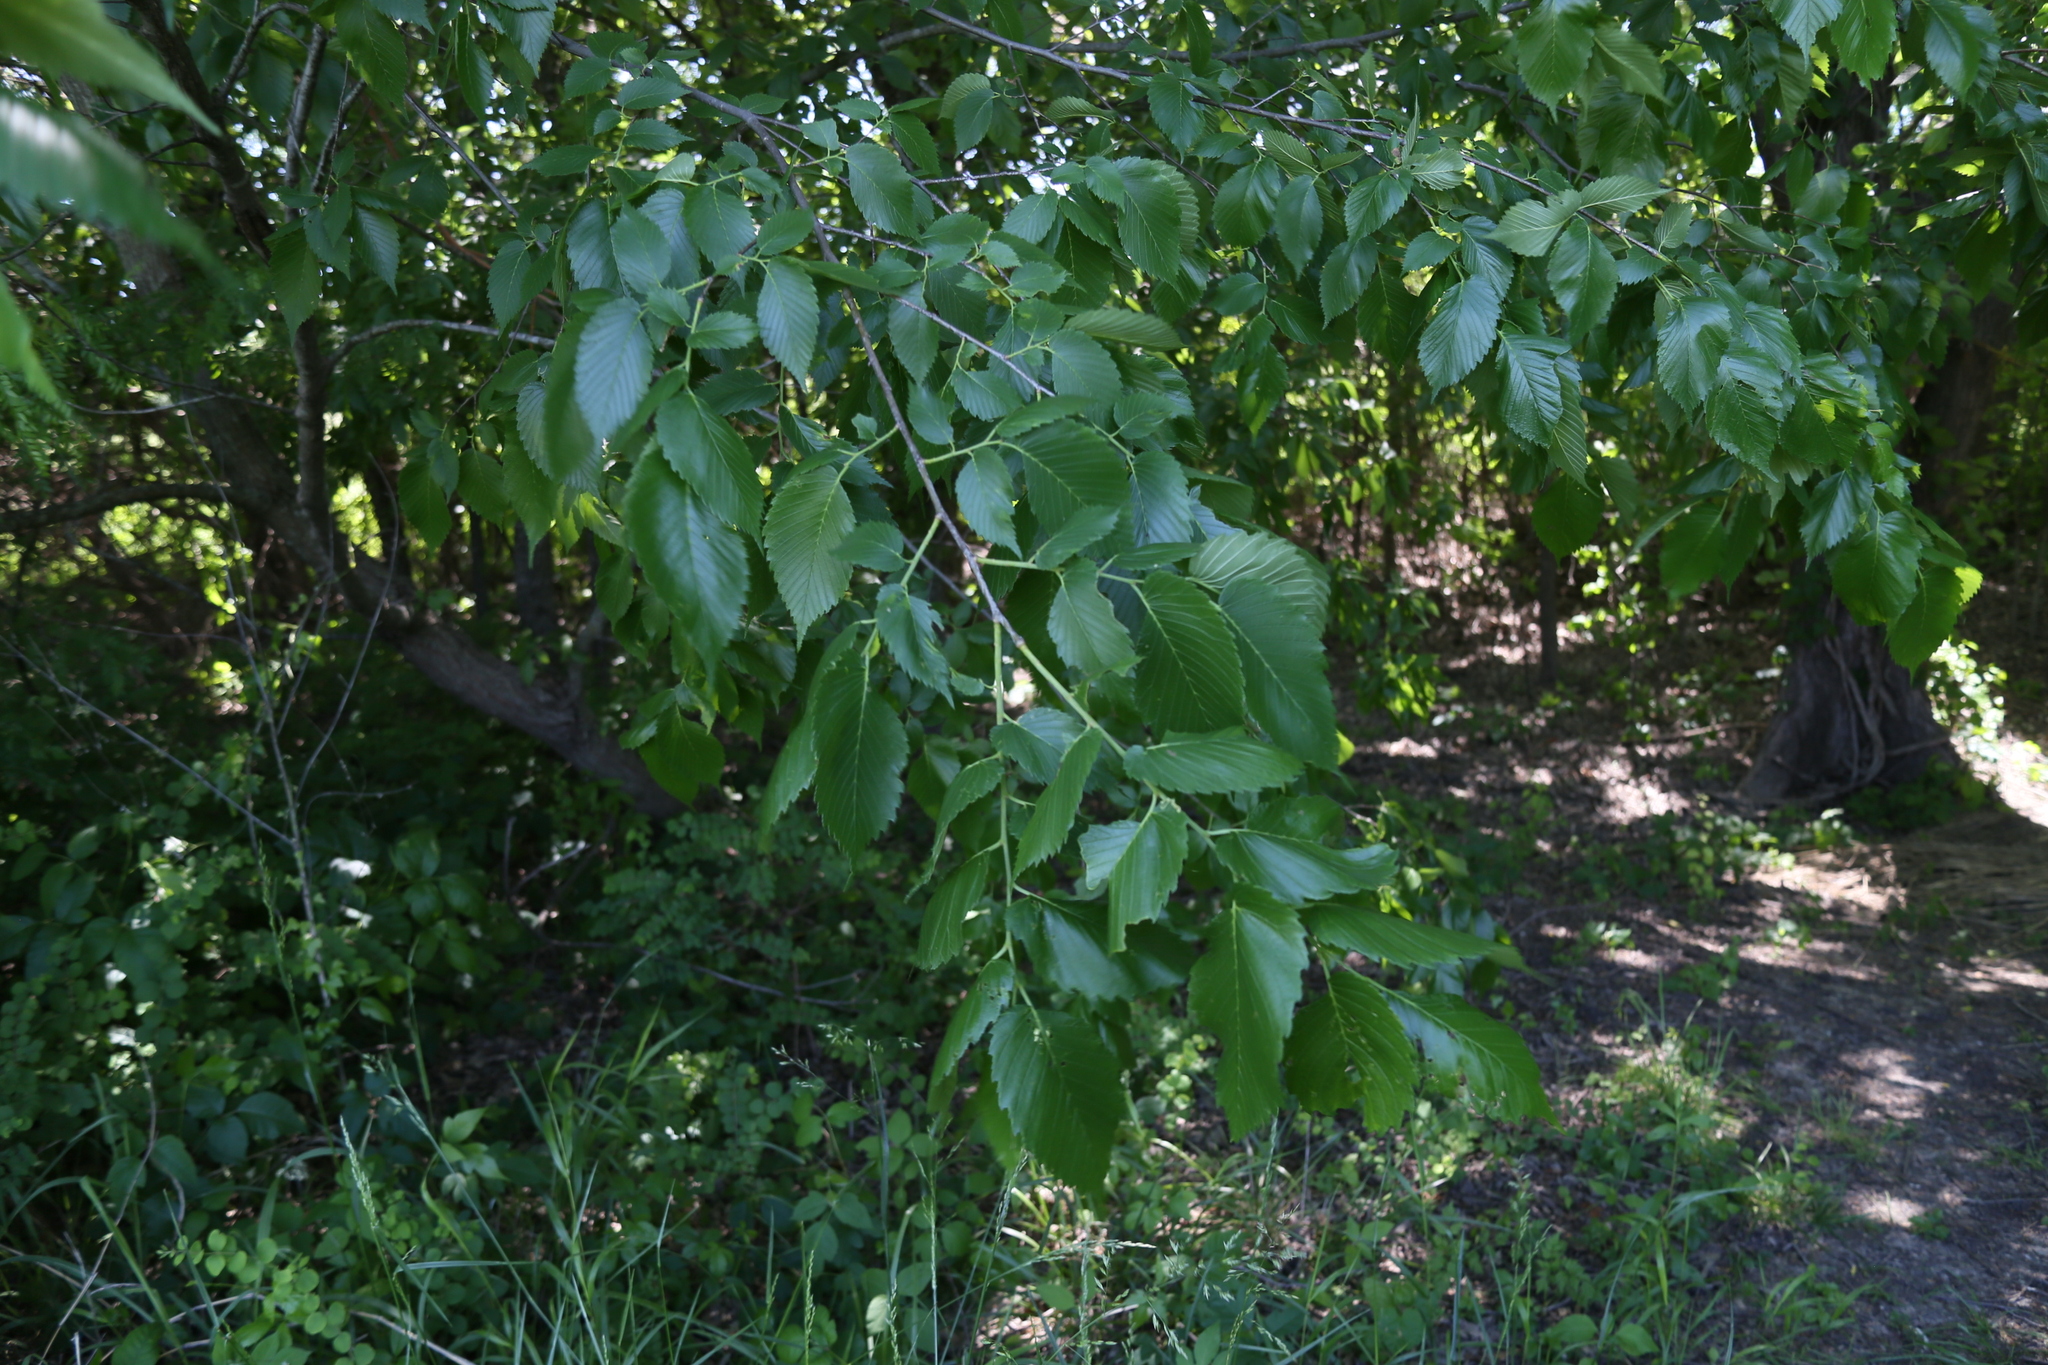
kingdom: Plantae
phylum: Tracheophyta
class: Magnoliopsida
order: Rosales
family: Ulmaceae
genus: Ulmus
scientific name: Ulmus americana
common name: American elm
